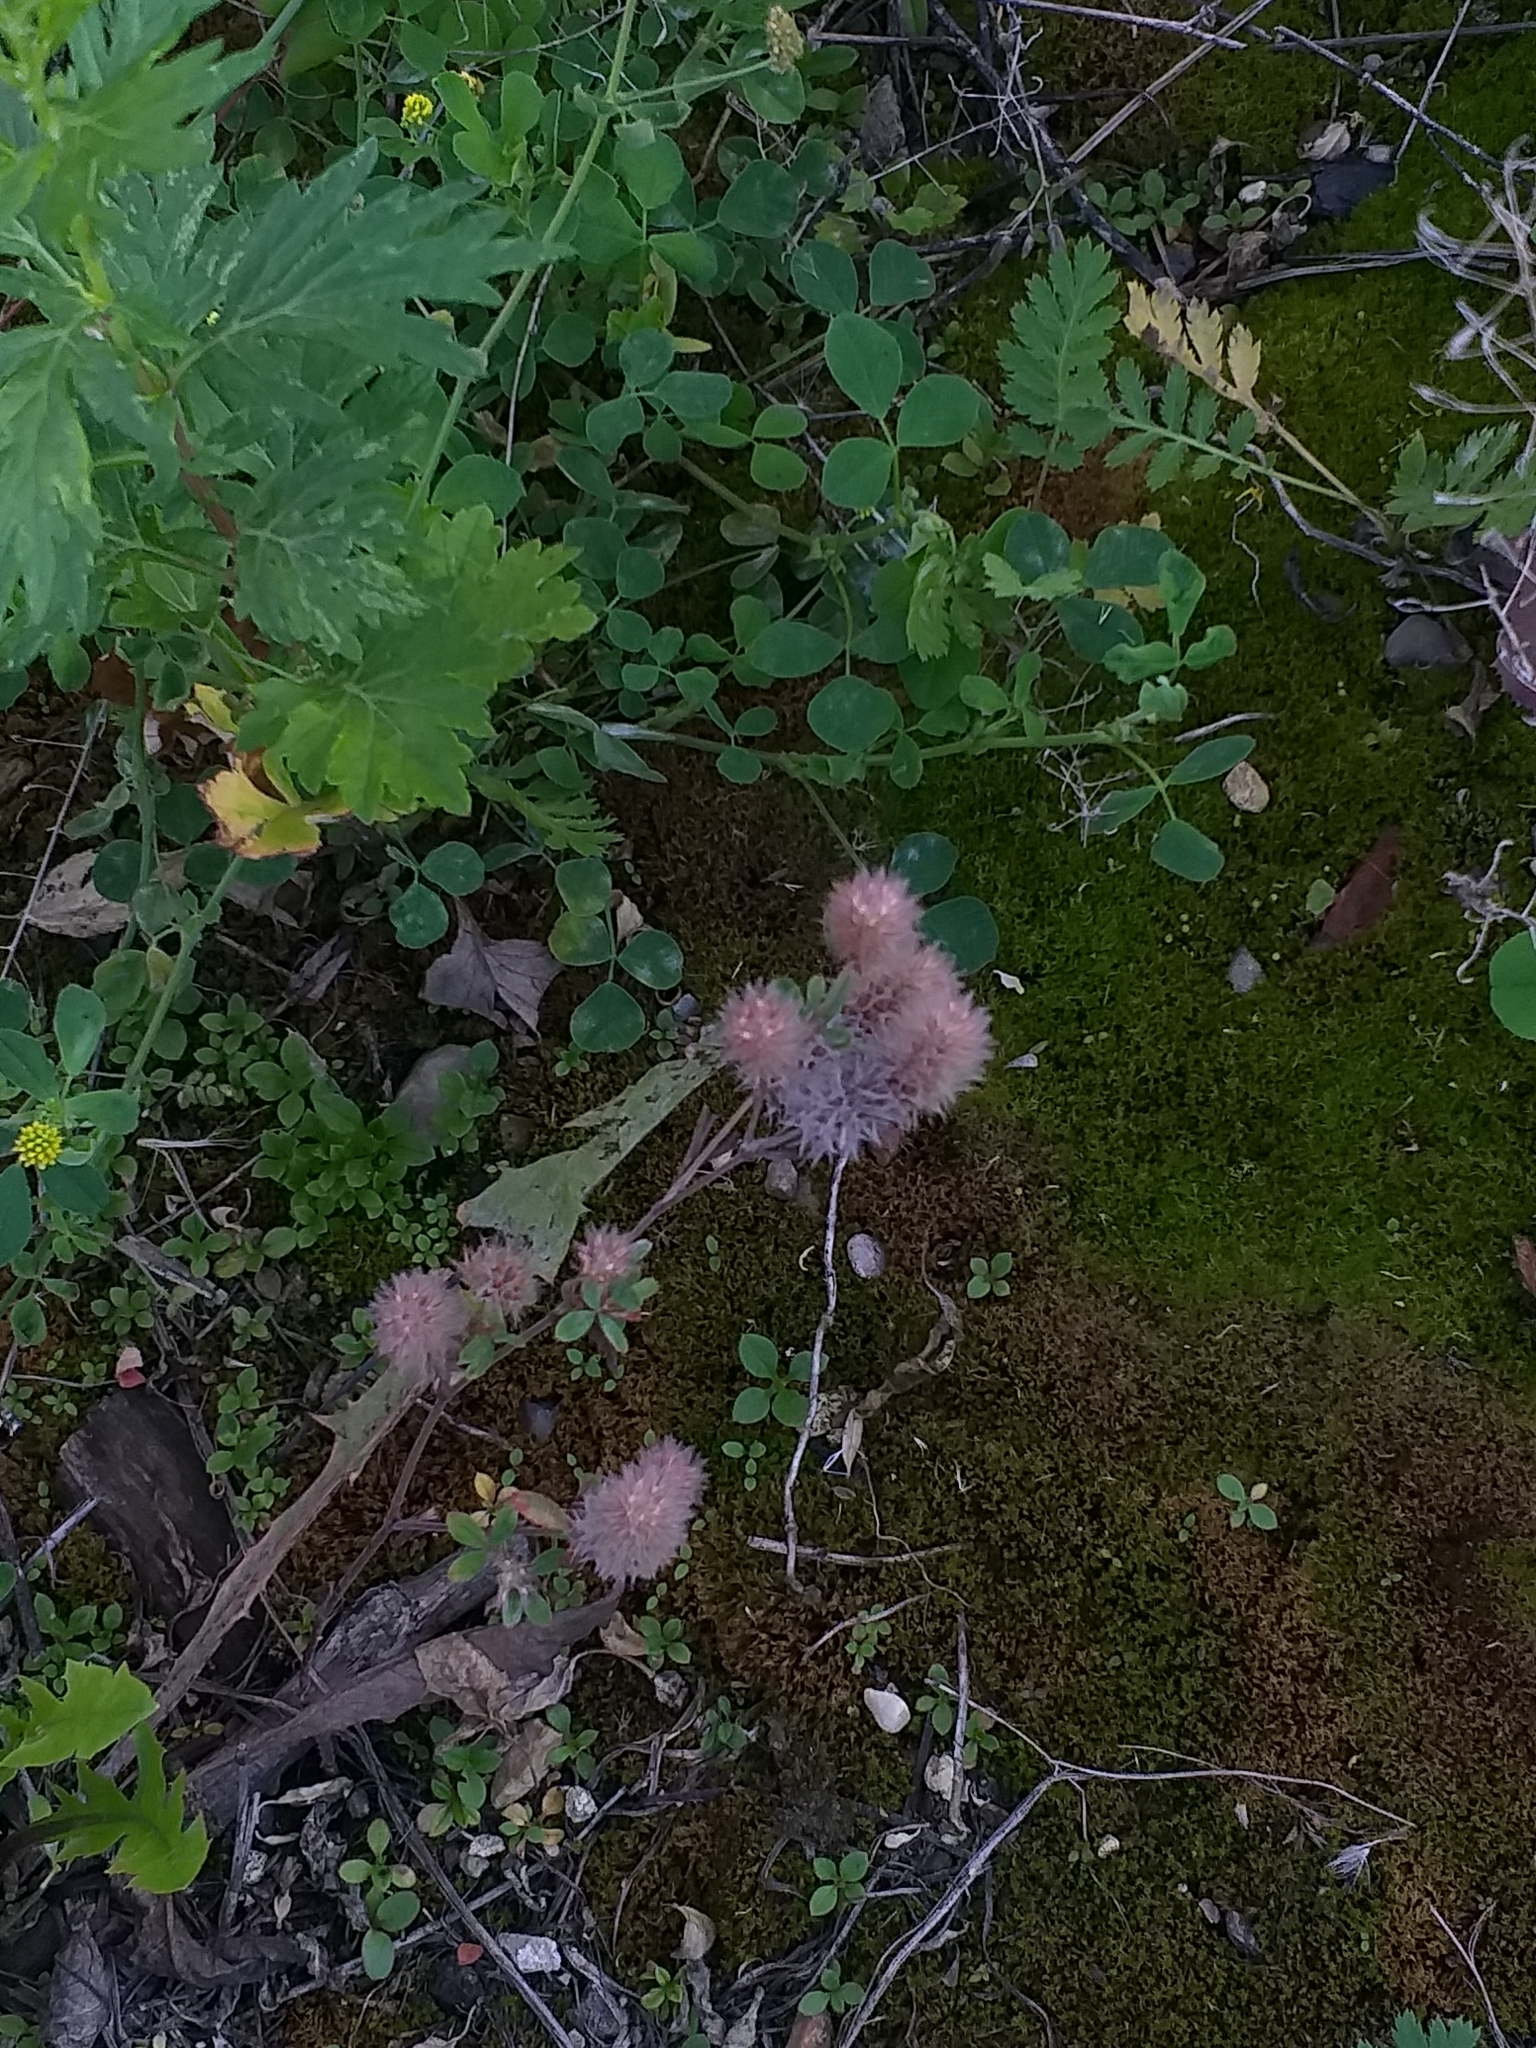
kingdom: Plantae
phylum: Tracheophyta
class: Magnoliopsida
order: Fabales
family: Fabaceae
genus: Trifolium
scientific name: Trifolium arvense
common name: Hare's-foot clover
